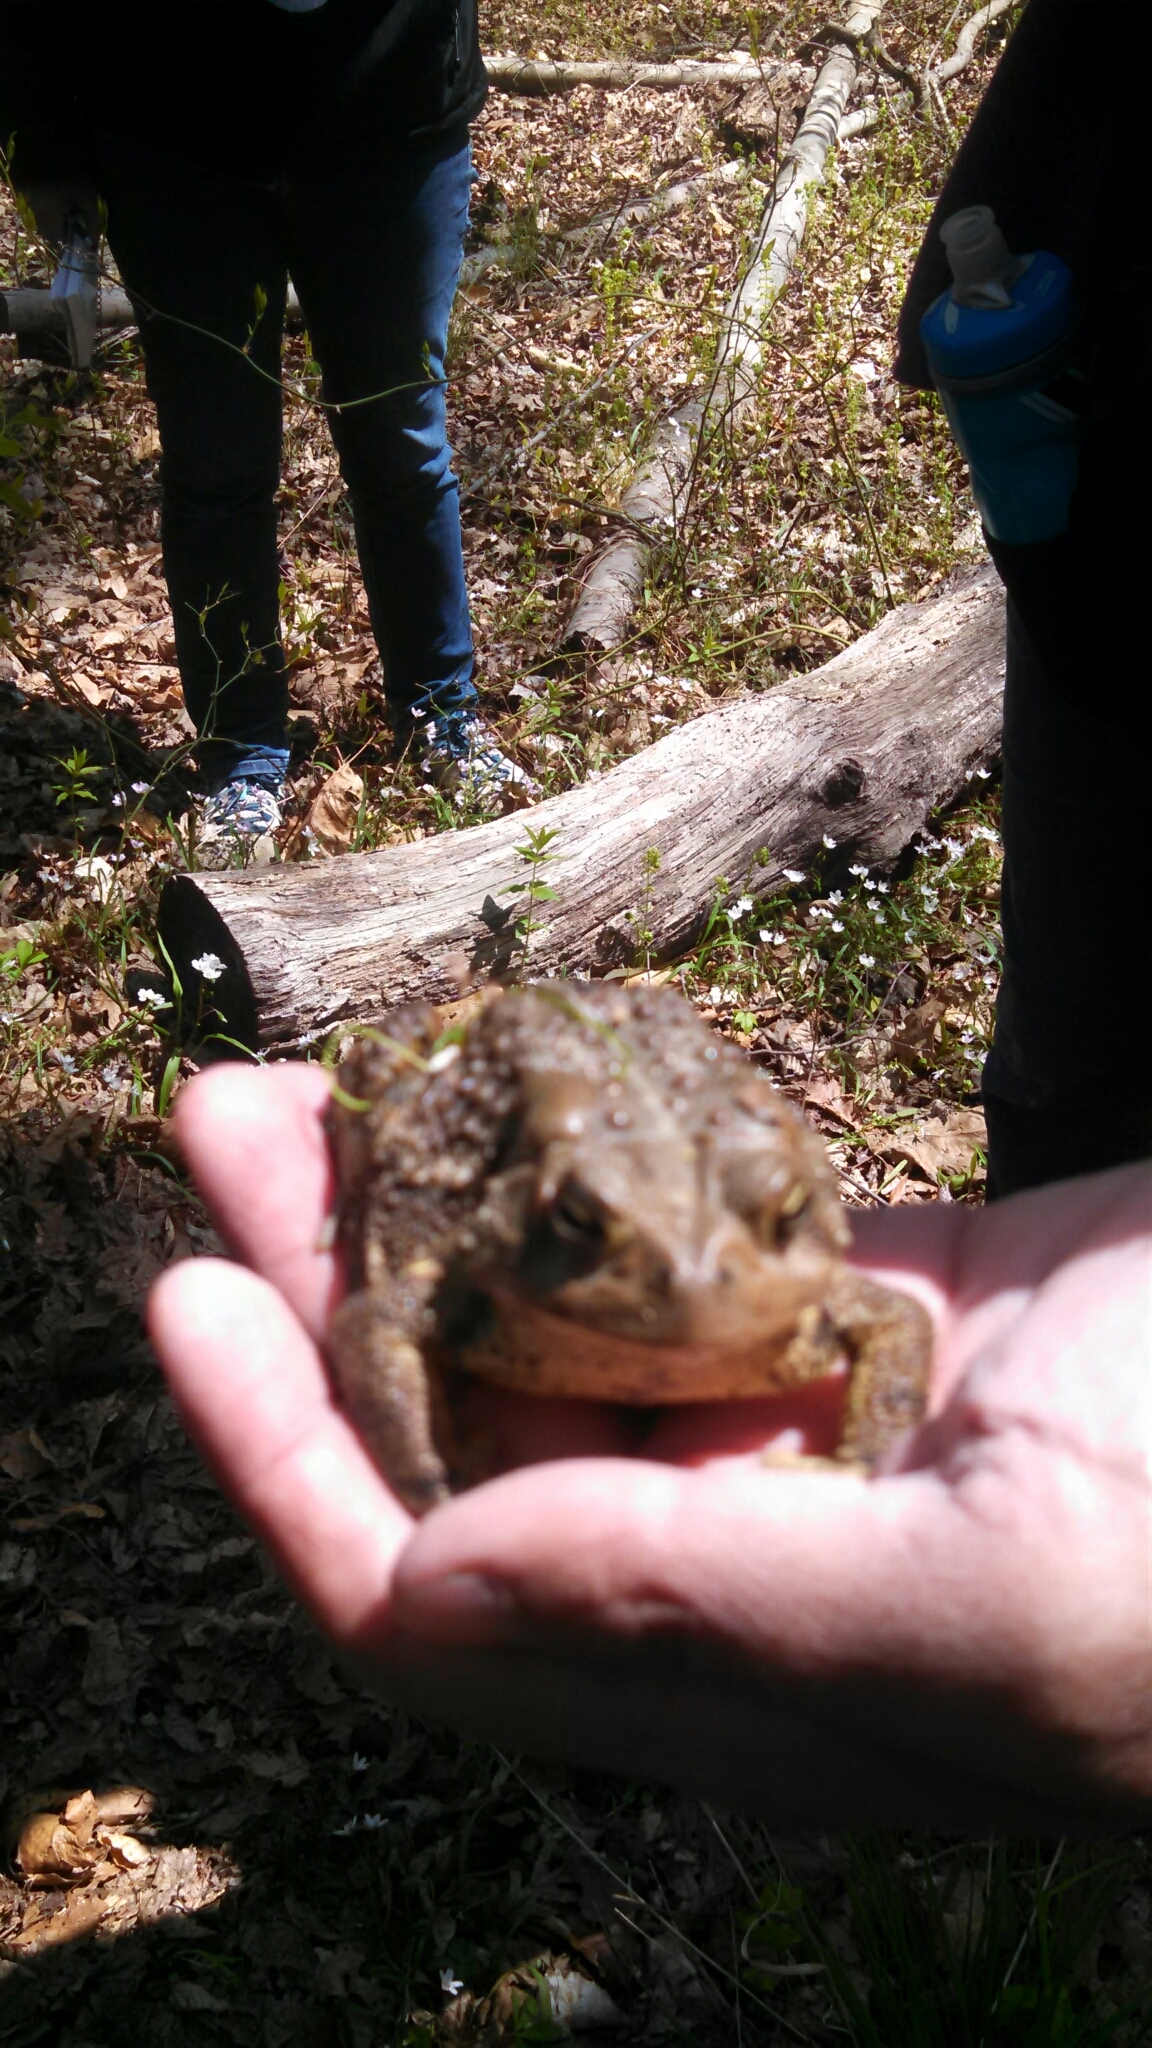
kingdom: Animalia
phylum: Chordata
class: Amphibia
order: Anura
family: Bufonidae
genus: Anaxyrus
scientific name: Anaxyrus americanus
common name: American toad
